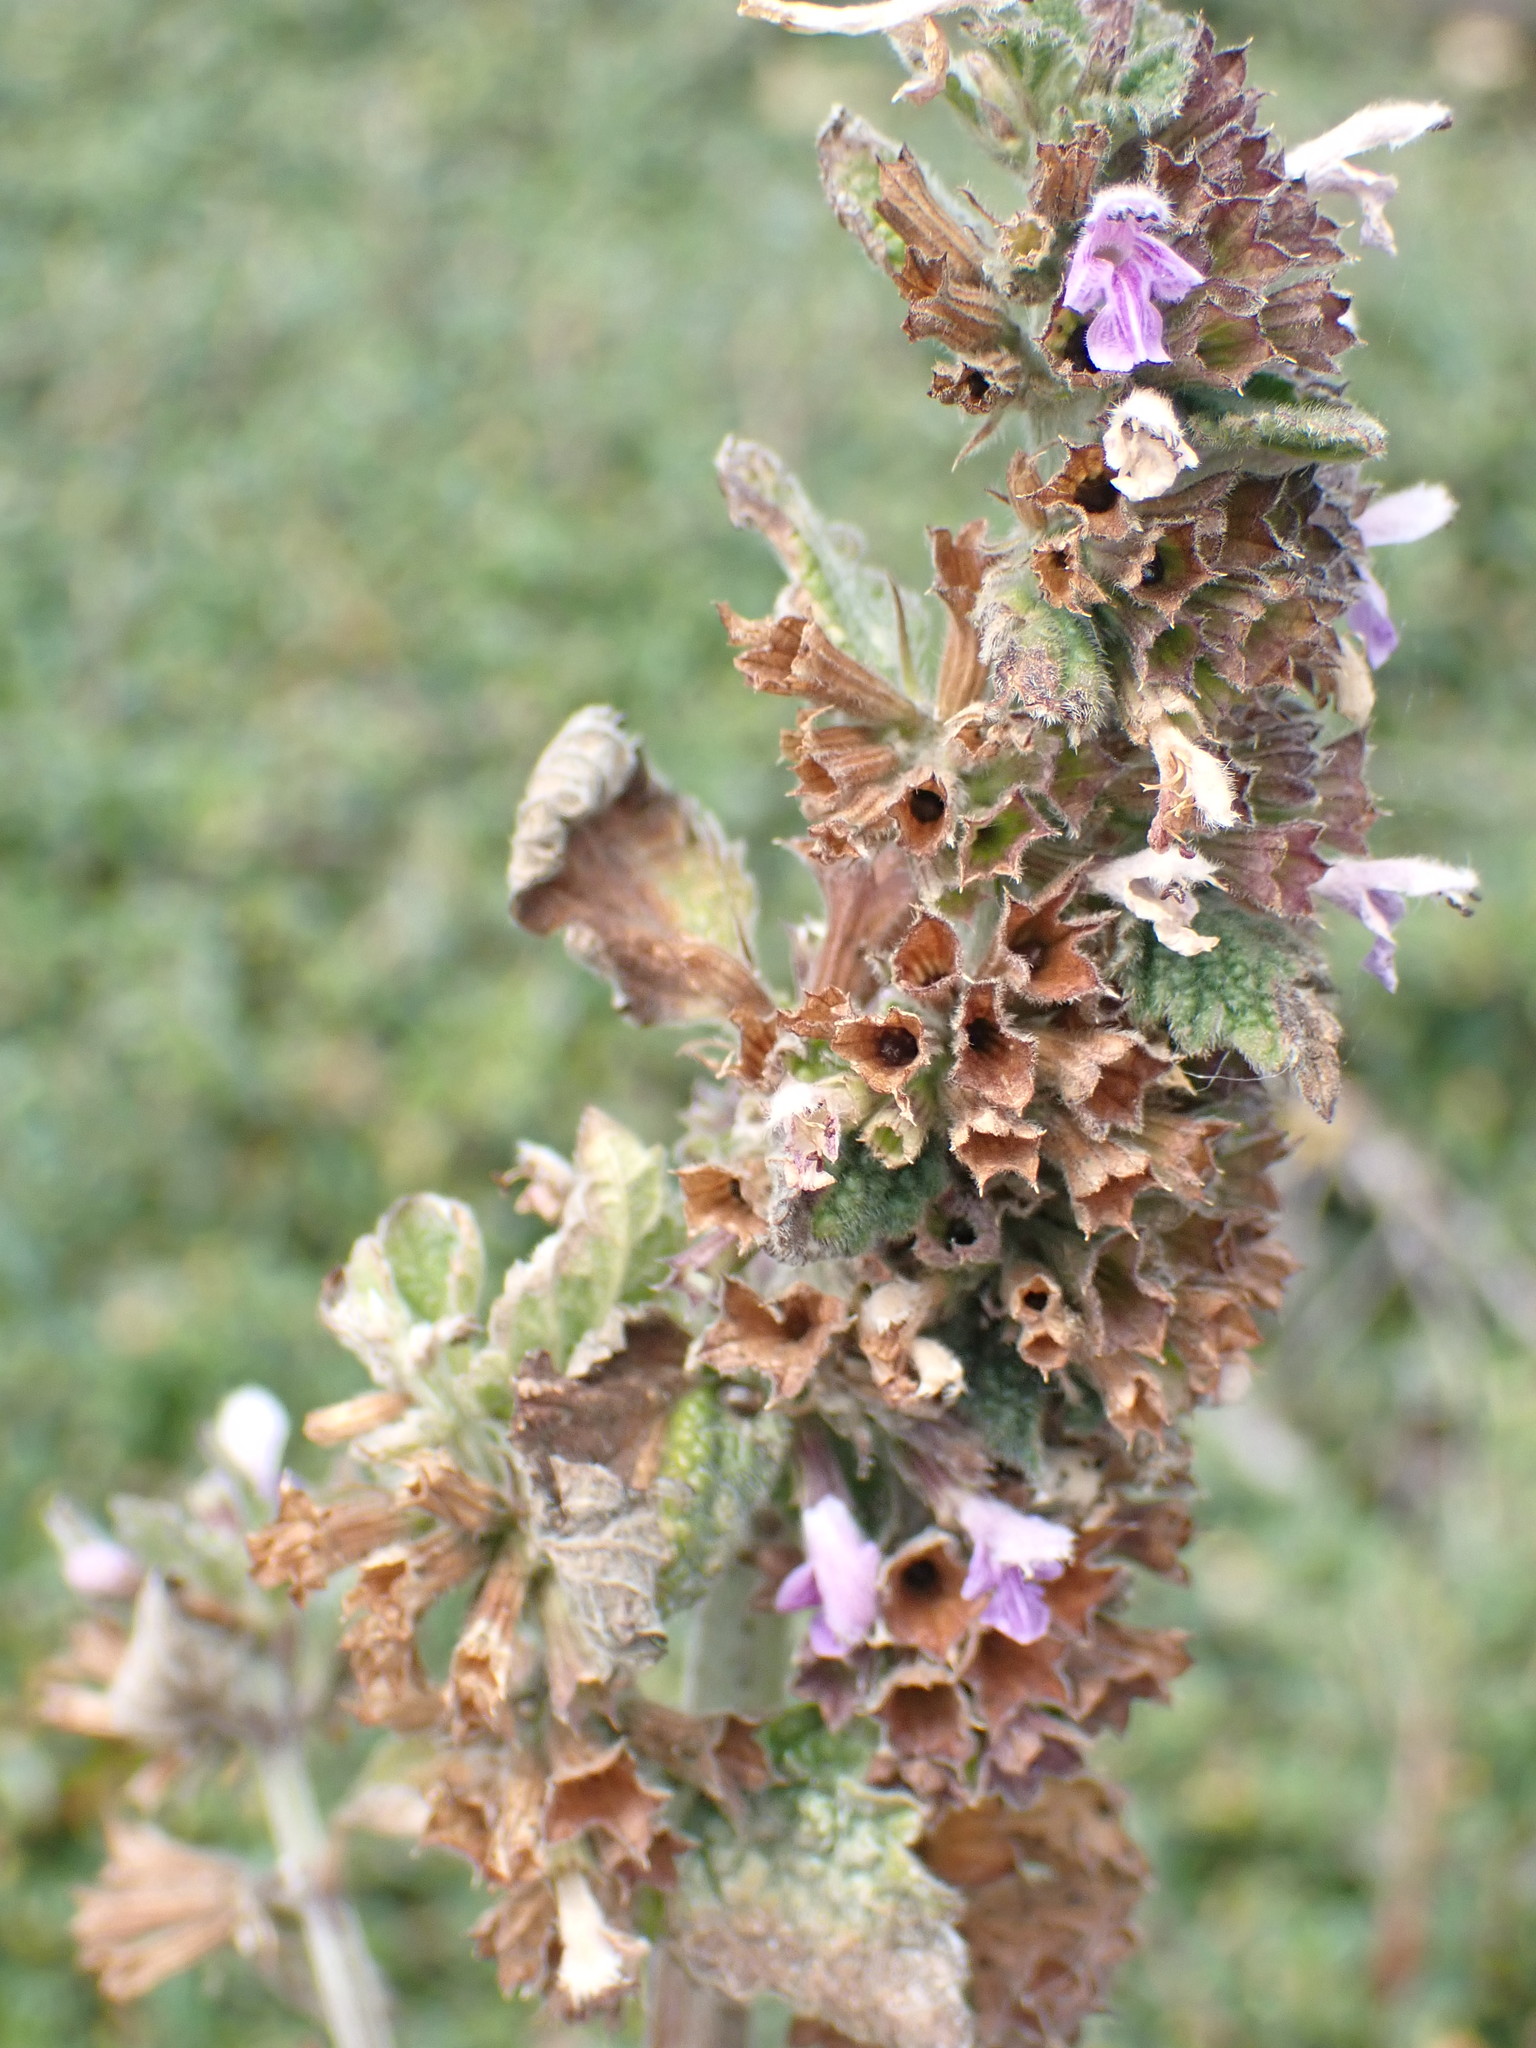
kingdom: Plantae
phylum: Tracheophyta
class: Magnoliopsida
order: Lamiales
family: Lamiaceae
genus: Ballota
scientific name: Ballota nigra
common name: Black horehound
